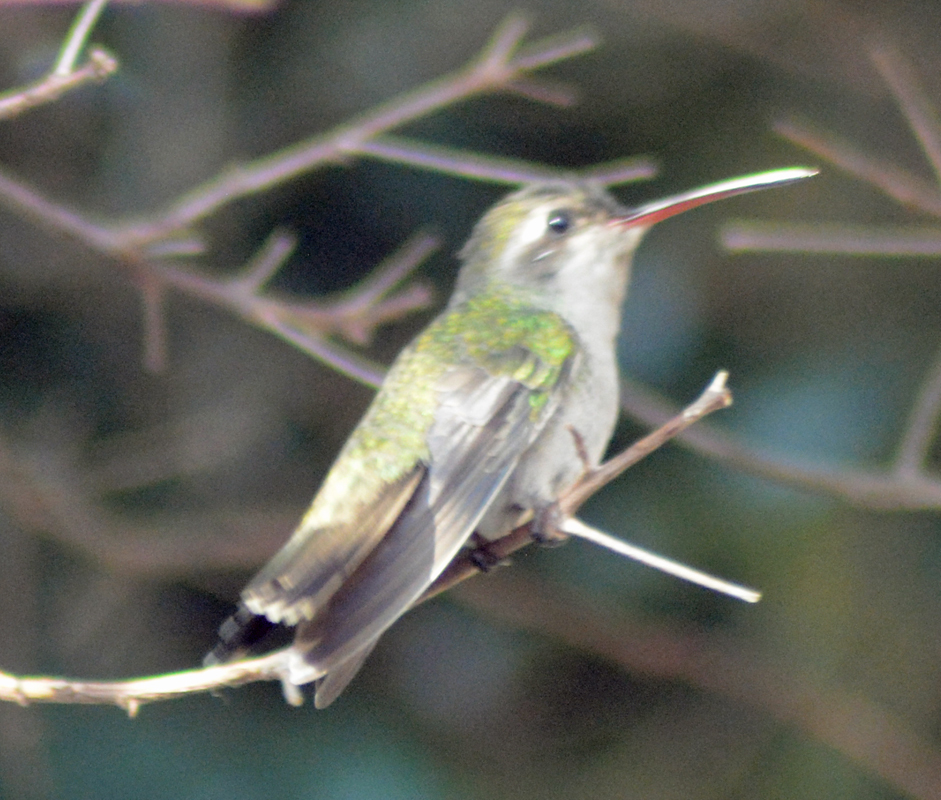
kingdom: Animalia
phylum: Chordata
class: Aves
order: Apodiformes
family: Trochilidae
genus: Cynanthus
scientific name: Cynanthus latirostris
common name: Broad-billed hummingbird
